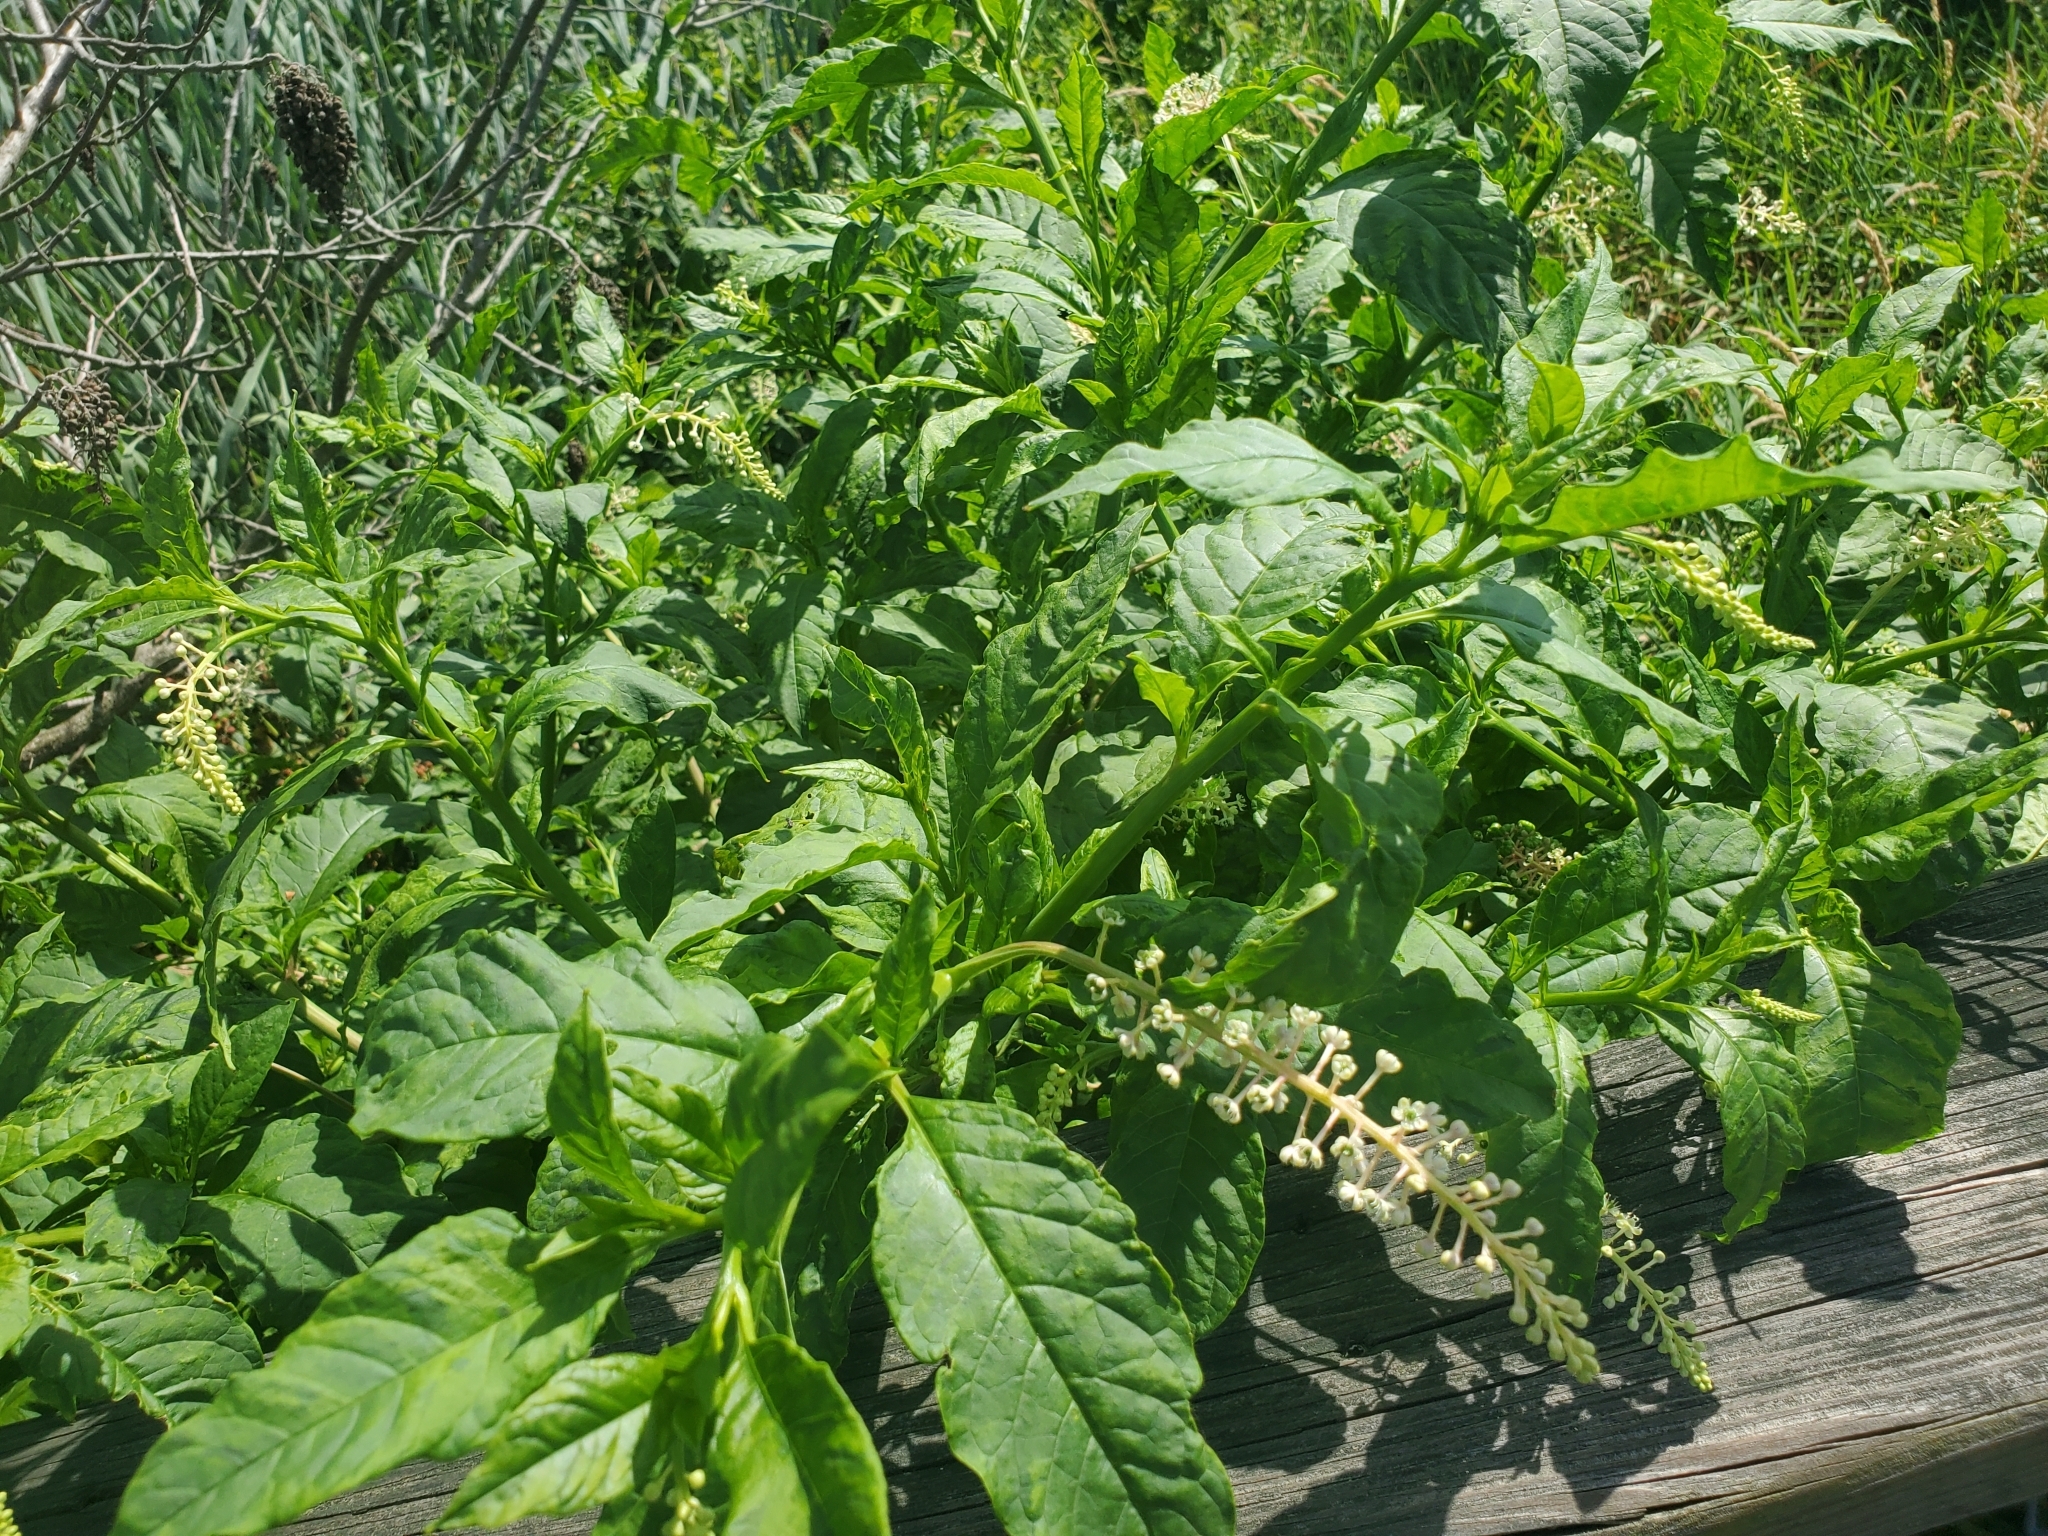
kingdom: Plantae
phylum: Tracheophyta
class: Magnoliopsida
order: Caryophyllales
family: Phytolaccaceae
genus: Phytolacca
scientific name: Phytolacca americana
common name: American pokeweed
